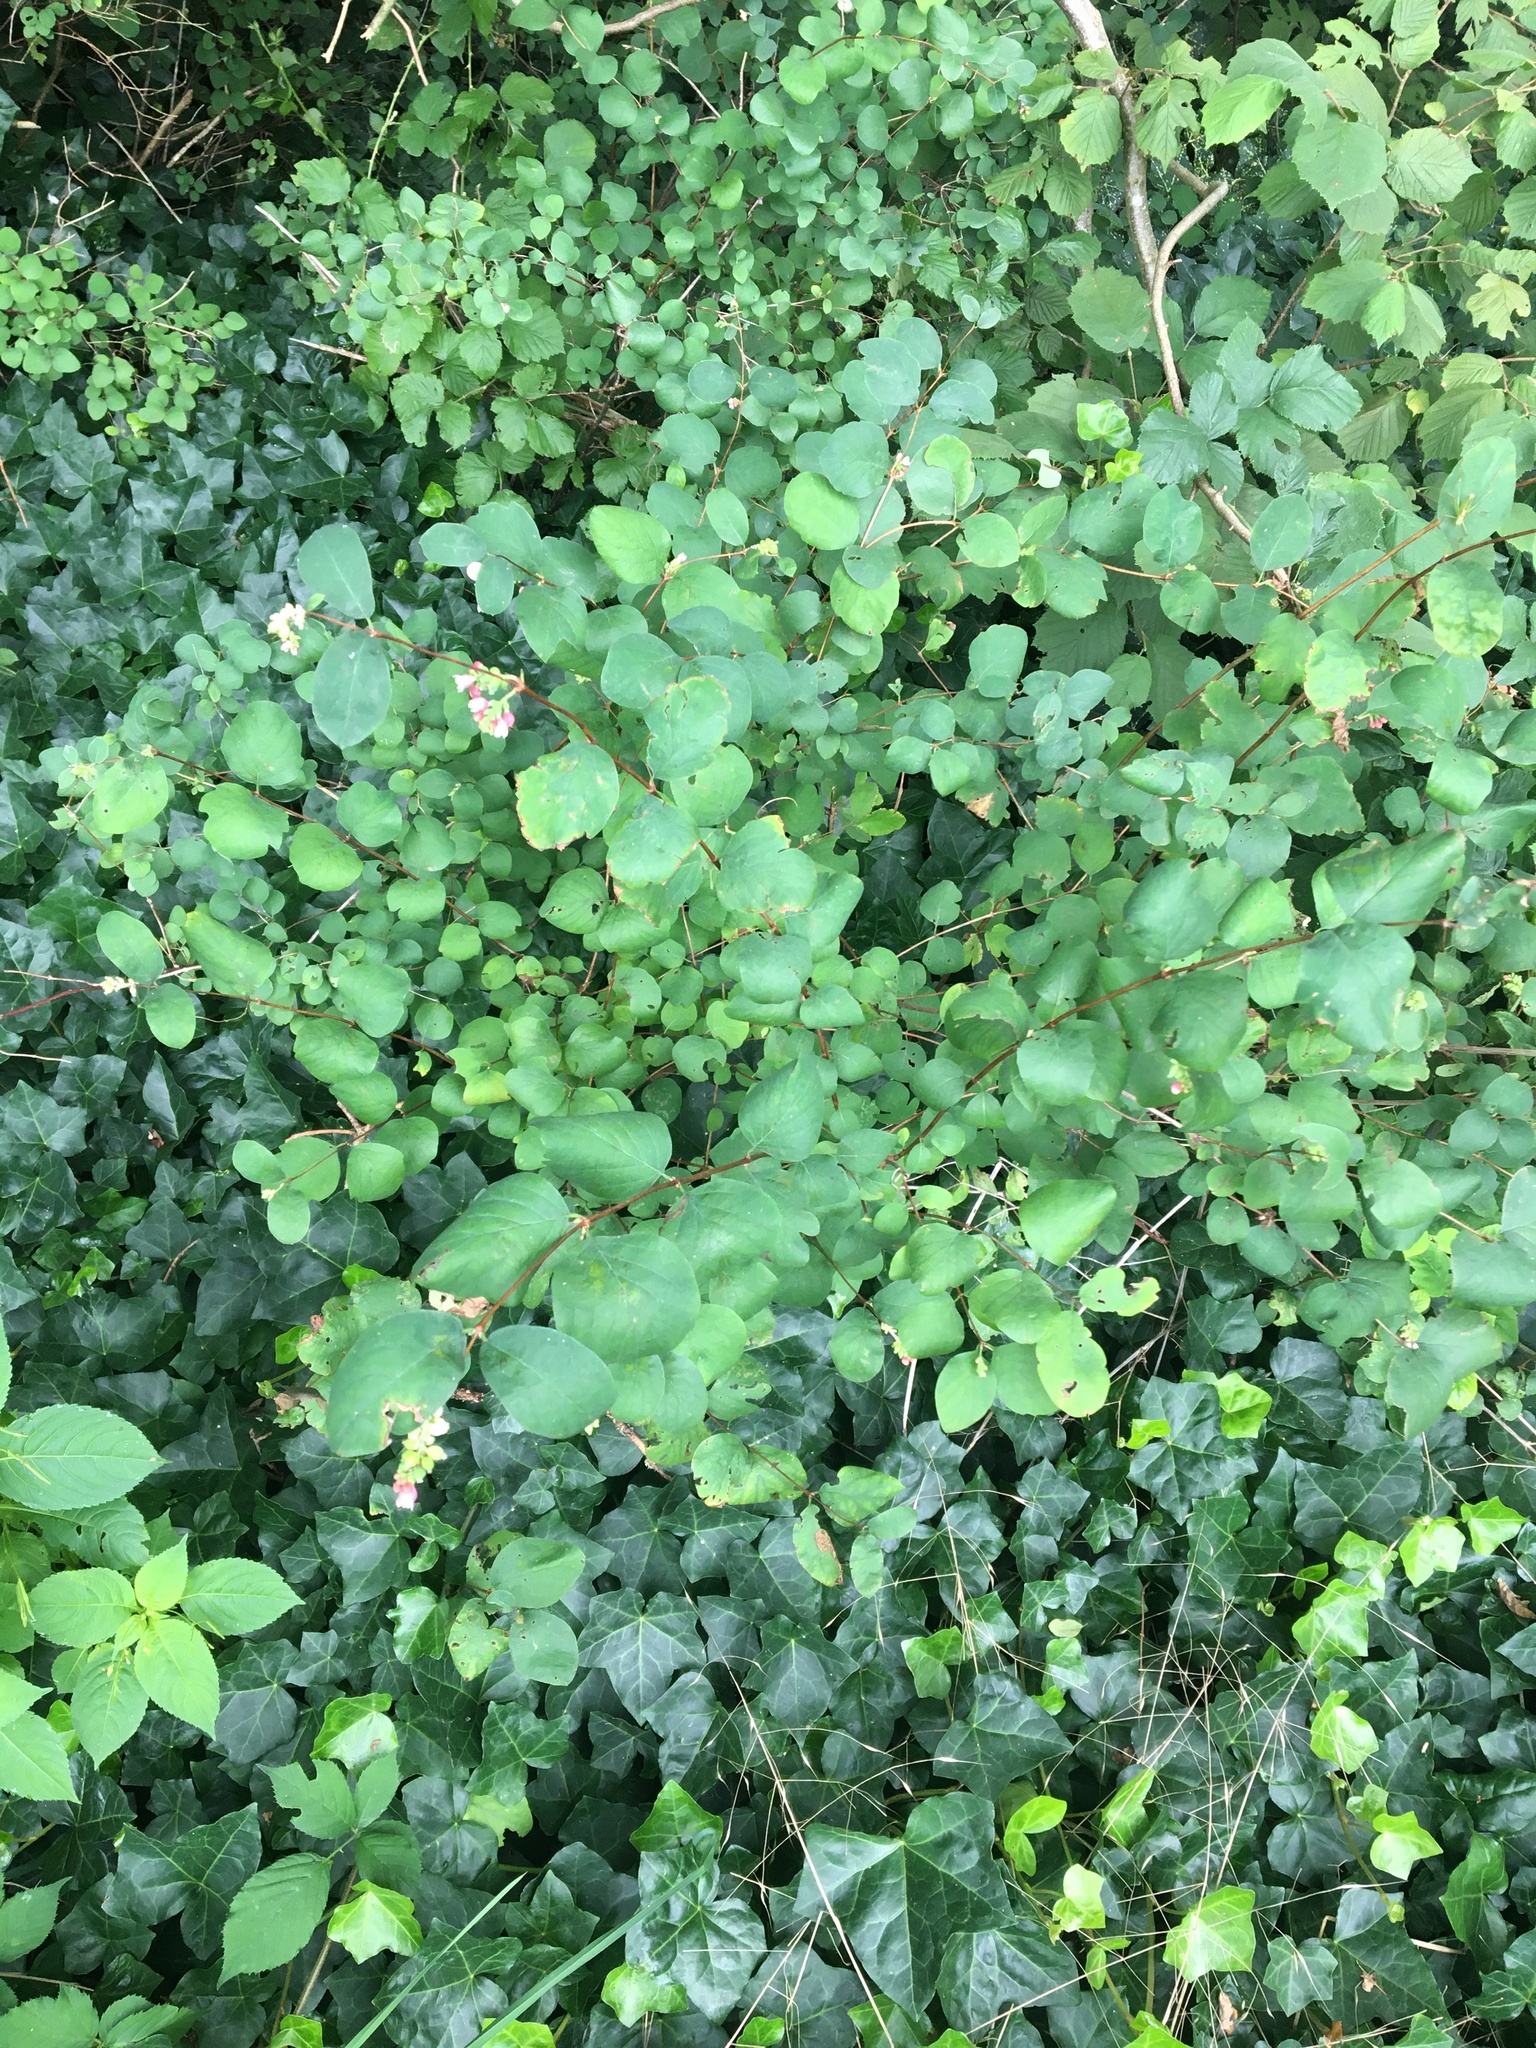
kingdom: Plantae
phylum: Tracheophyta
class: Magnoliopsida
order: Dipsacales
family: Caprifoliaceae
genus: Symphoricarpos
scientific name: Symphoricarpos albus
